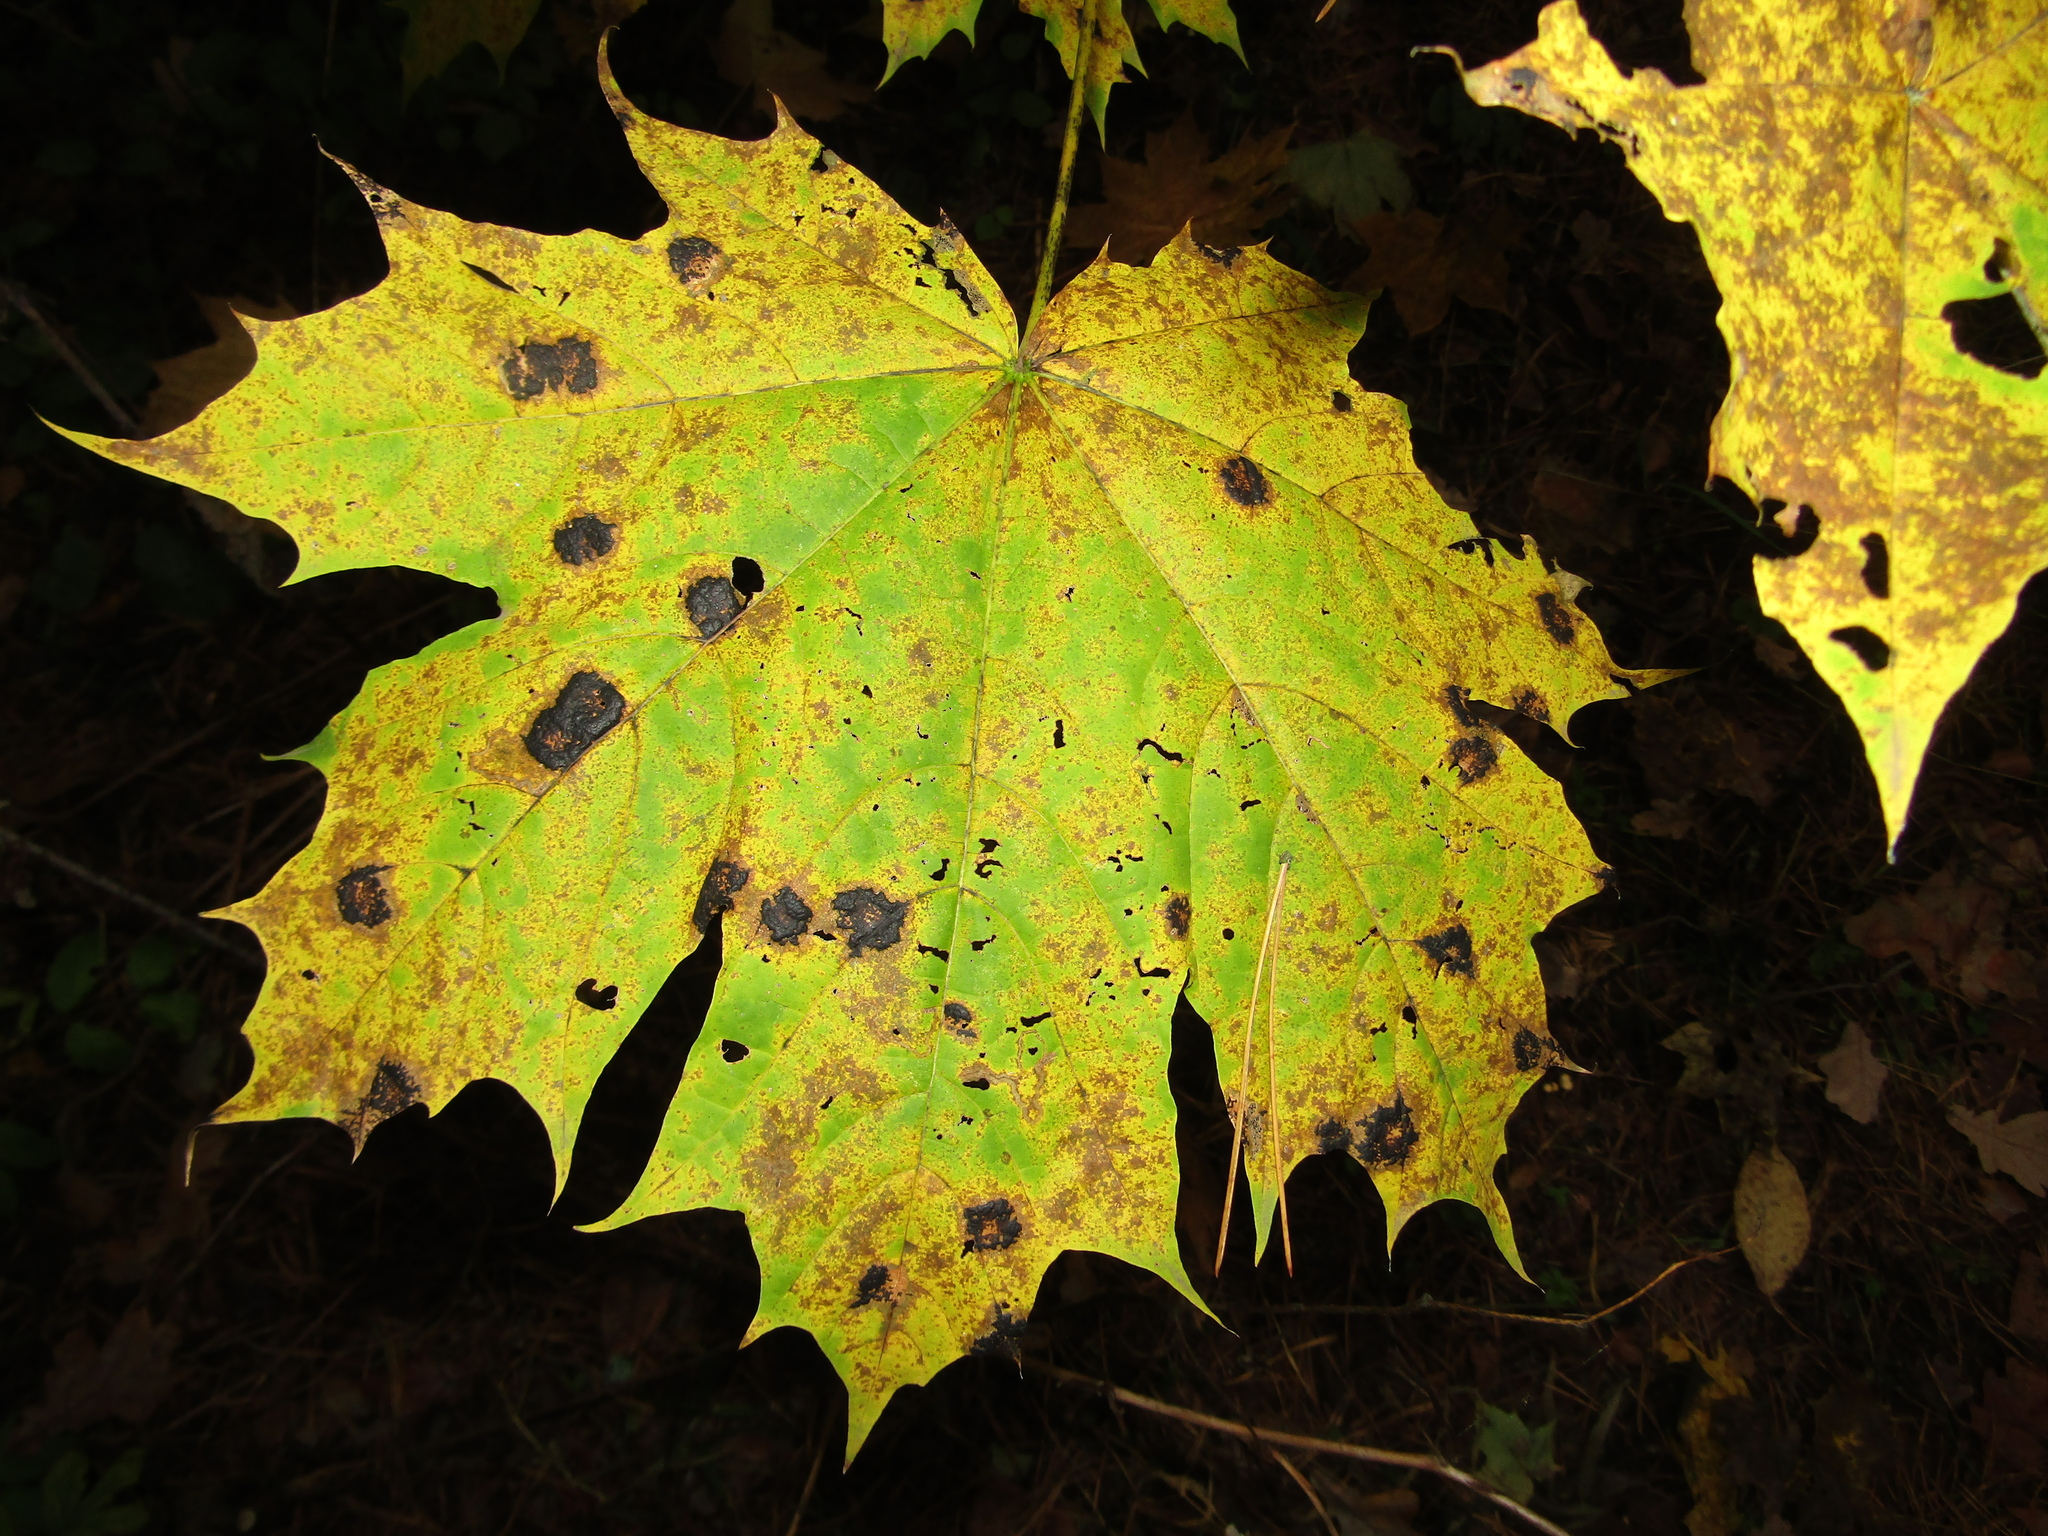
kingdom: Fungi
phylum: Ascomycota
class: Leotiomycetes
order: Rhytismatales
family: Rhytismataceae
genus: Rhytisma
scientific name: Rhytisma acerinum
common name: European tar spot
